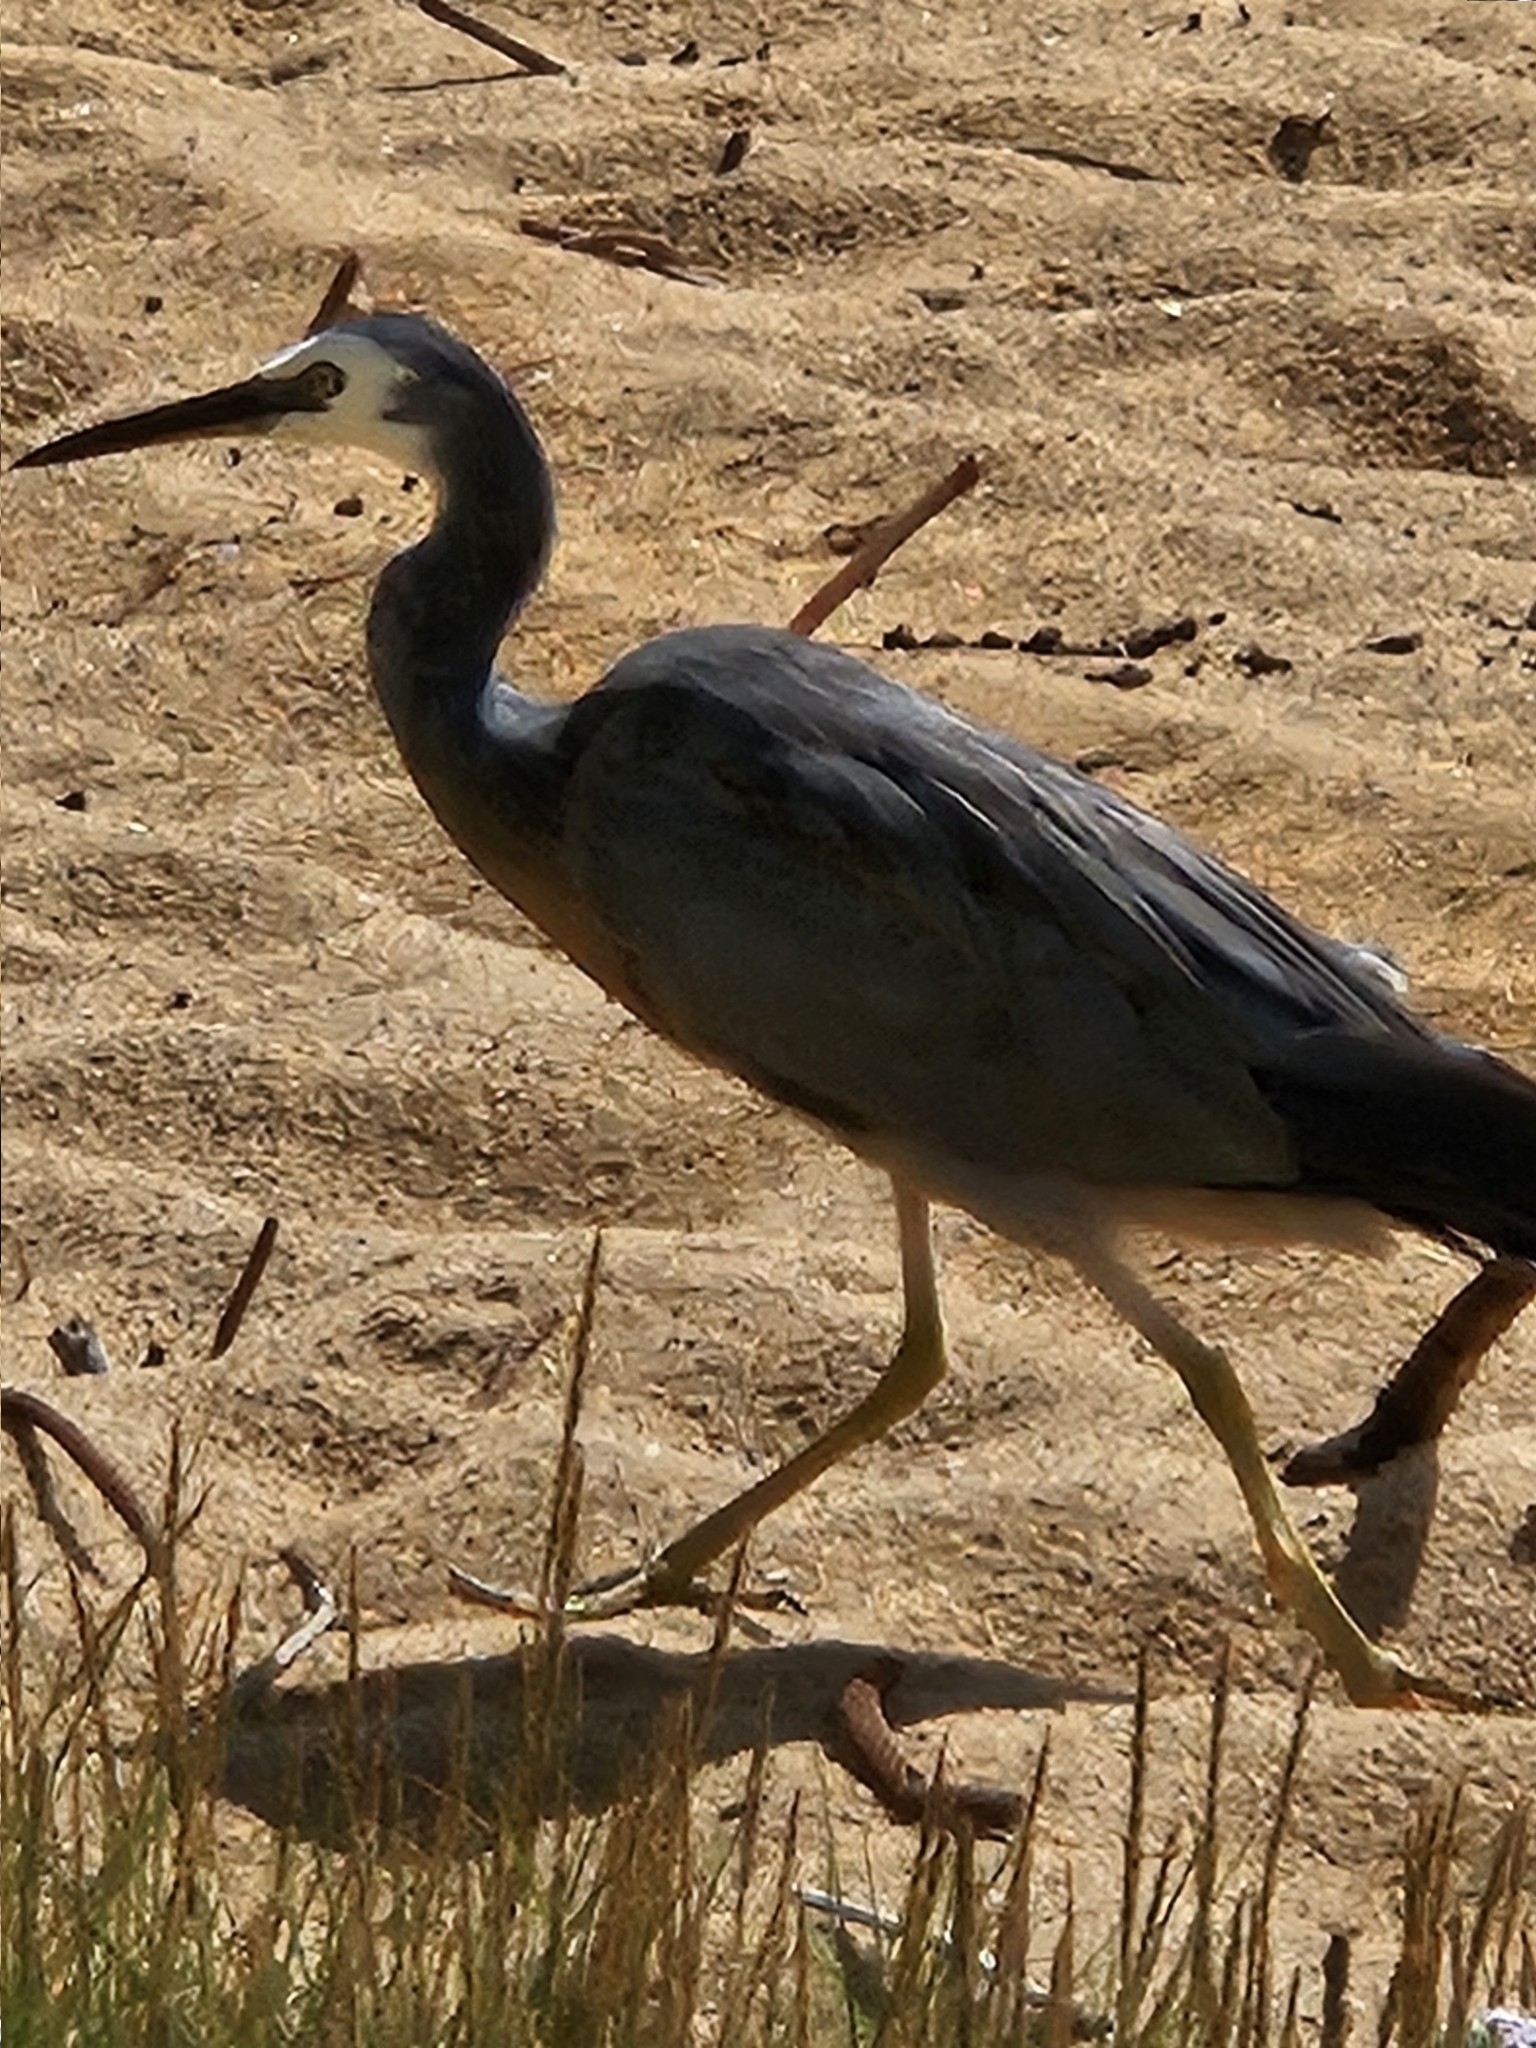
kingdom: Animalia
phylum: Chordata
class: Aves
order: Pelecaniformes
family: Ardeidae
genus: Egretta
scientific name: Egretta novaehollandiae
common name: White-faced heron
